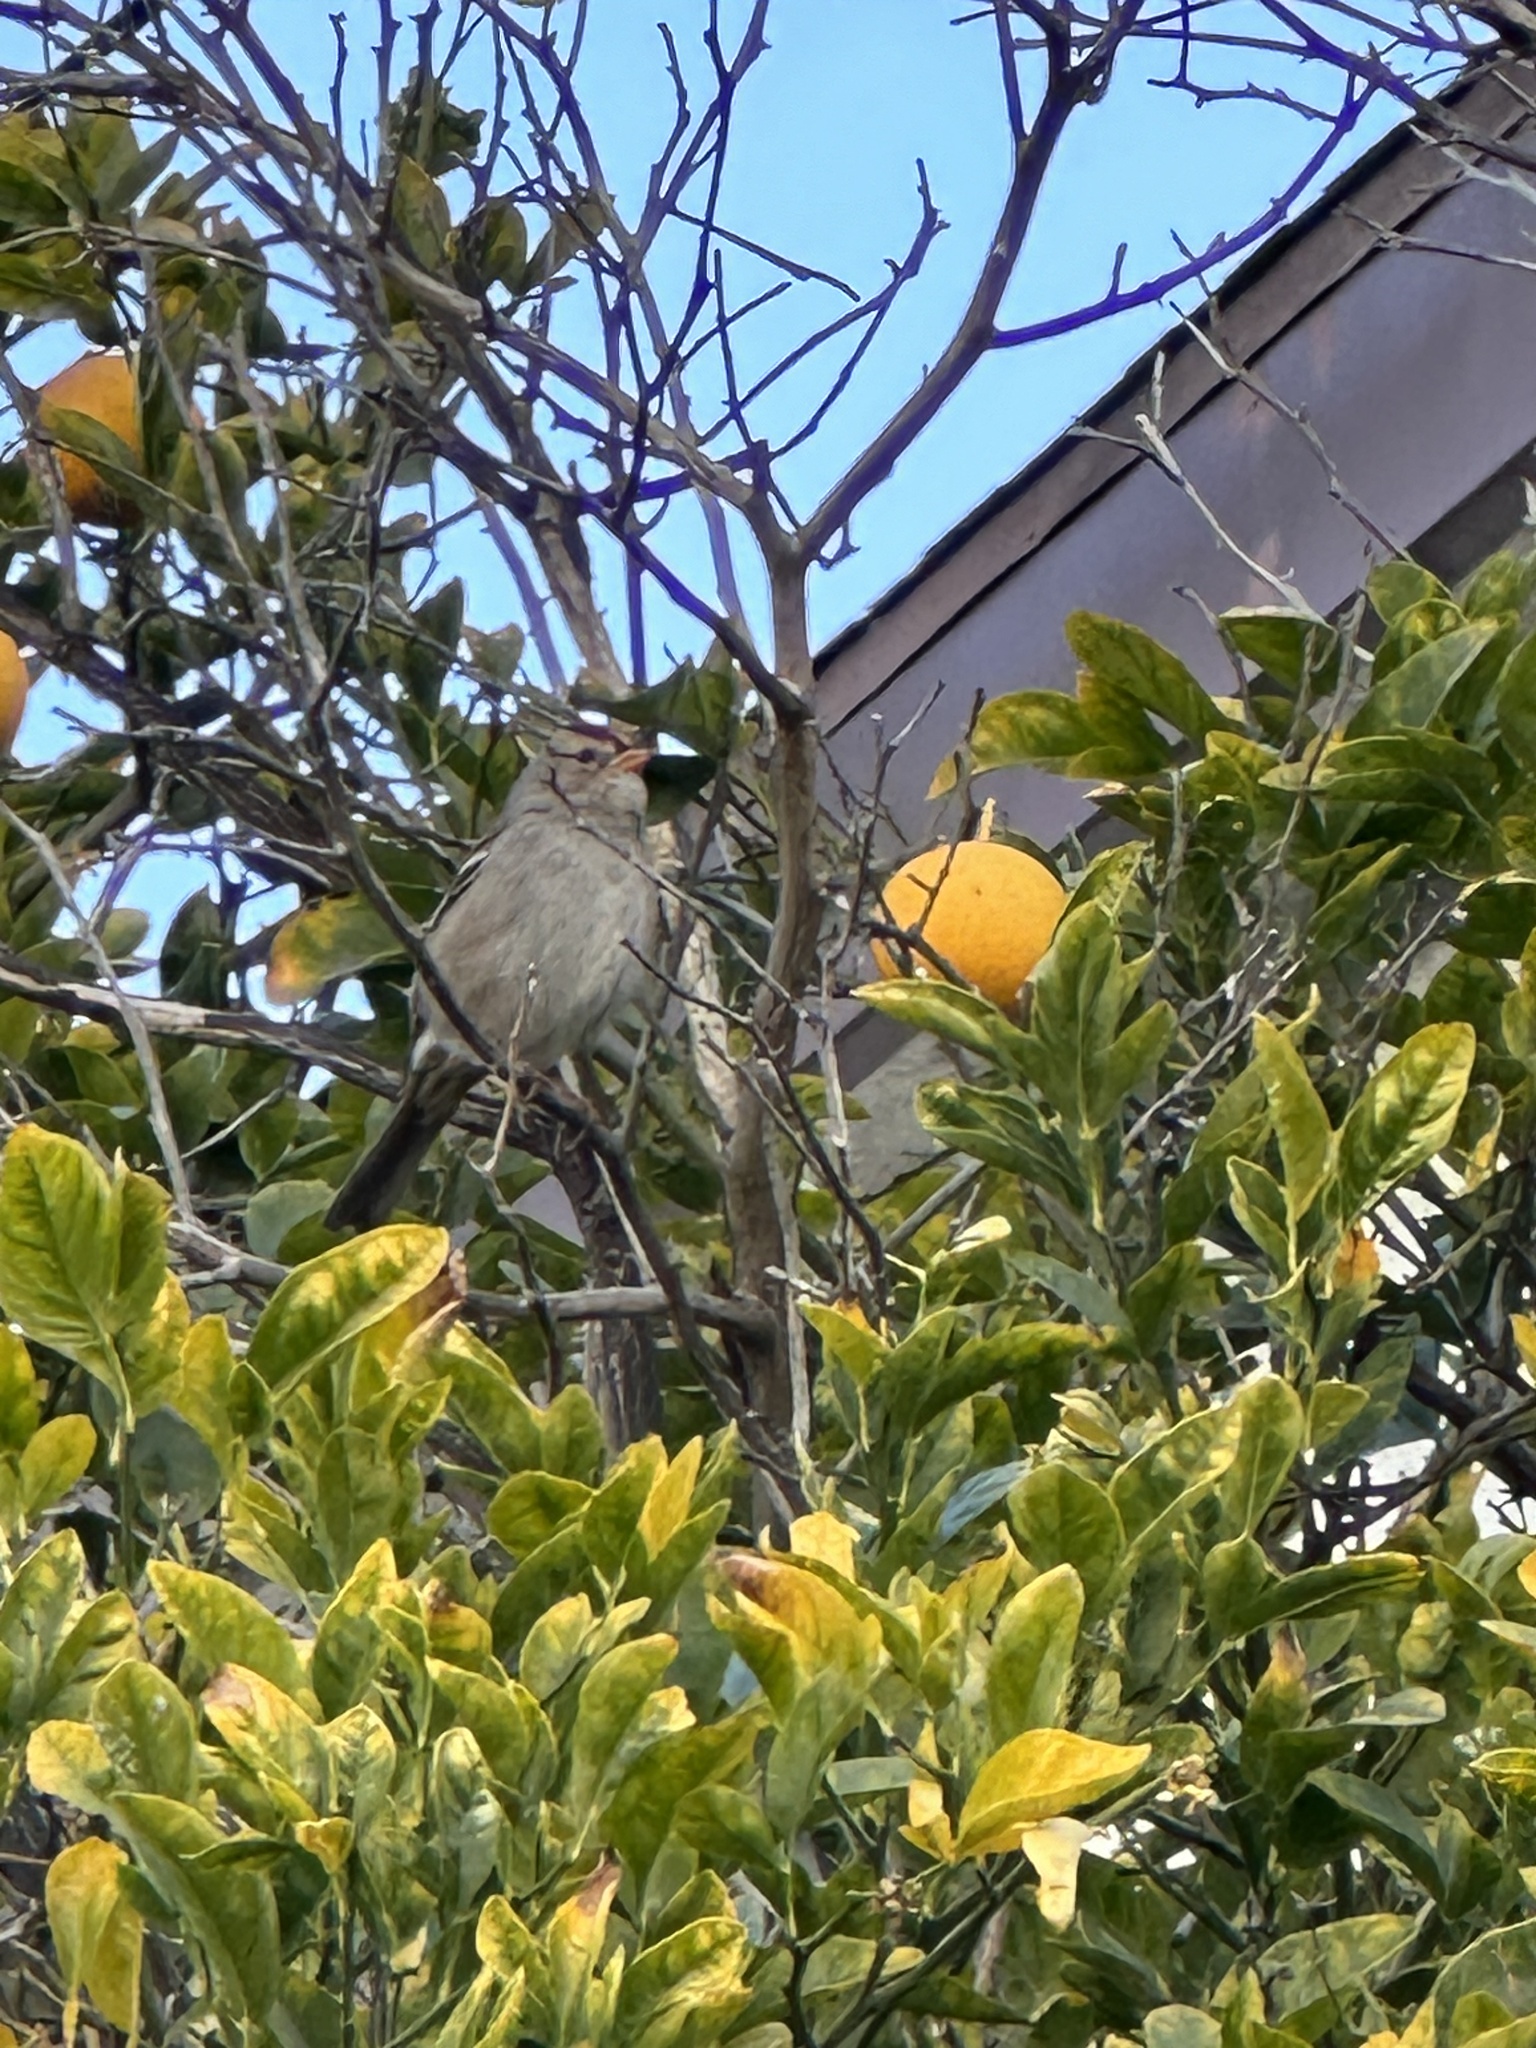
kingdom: Animalia
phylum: Chordata
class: Aves
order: Passeriformes
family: Passerellidae
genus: Zonotrichia
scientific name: Zonotrichia leucophrys
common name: White-crowned sparrow
